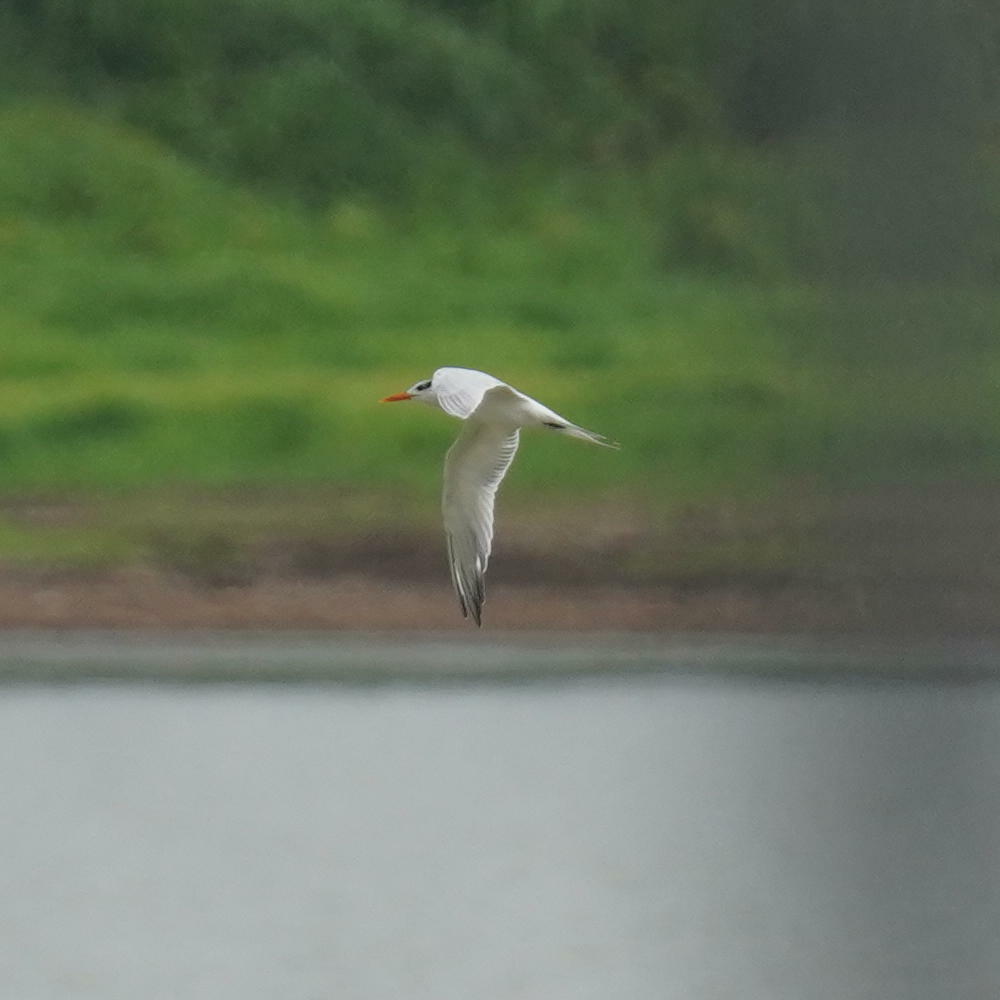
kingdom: Animalia
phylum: Chordata
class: Aves
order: Charadriiformes
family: Laridae
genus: Thalasseus
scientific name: Thalasseus maximus
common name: Royal tern
